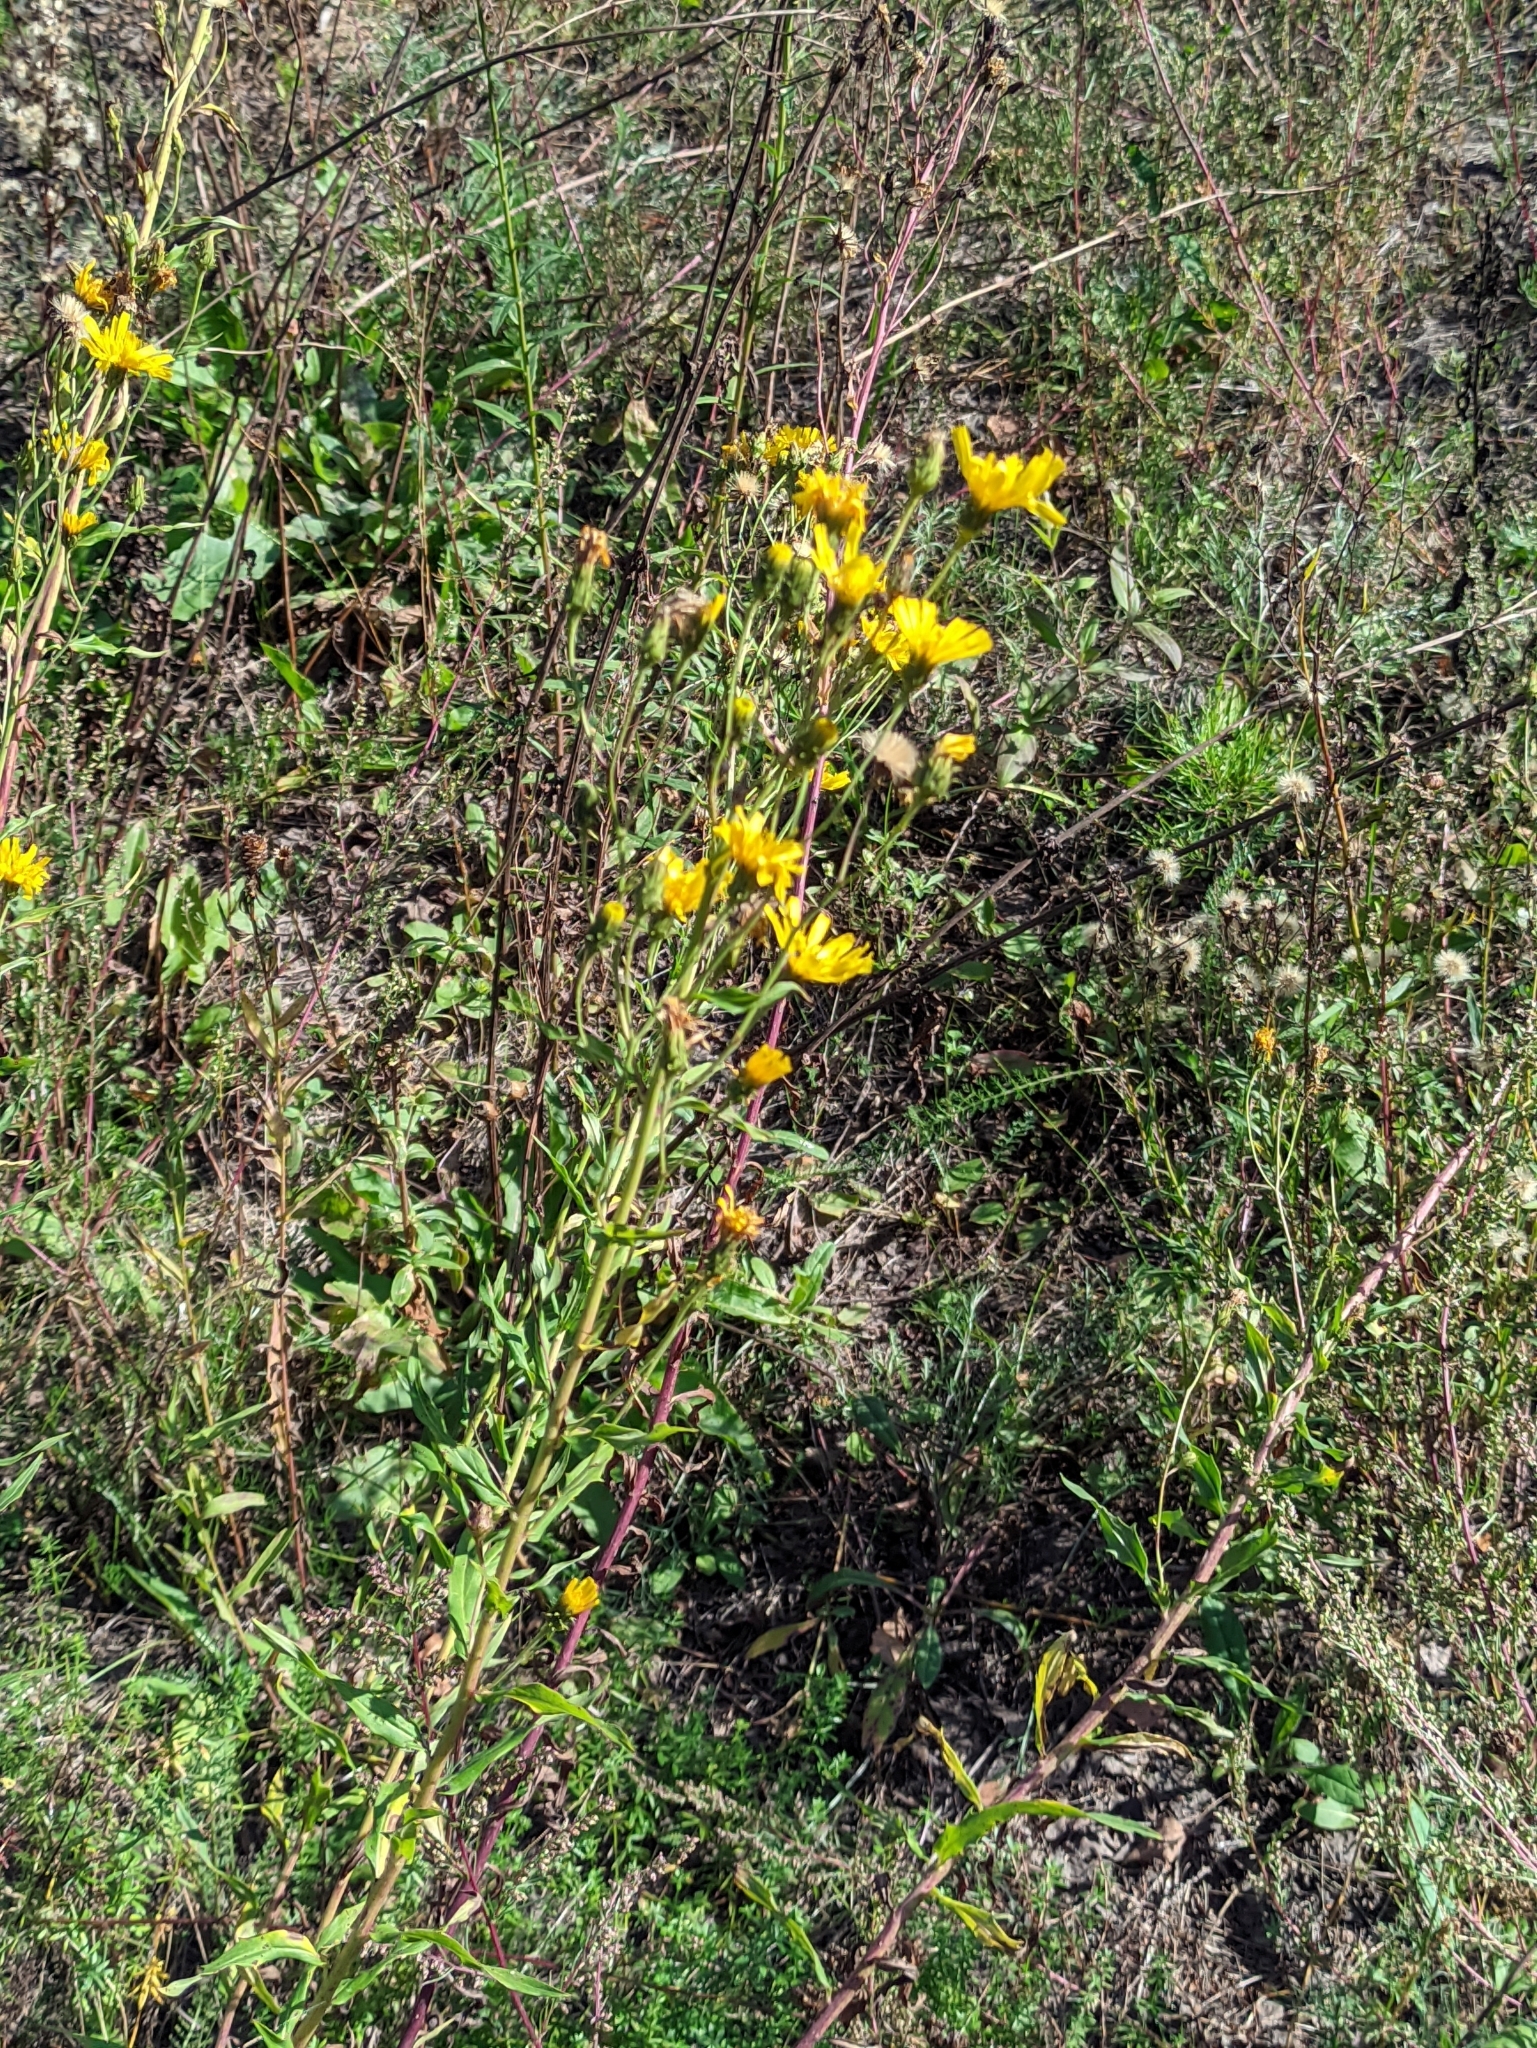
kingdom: Plantae
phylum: Tracheophyta
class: Magnoliopsida
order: Asterales
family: Asteraceae
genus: Hieracium
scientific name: Hieracium umbellatum
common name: Northern hawkweed
